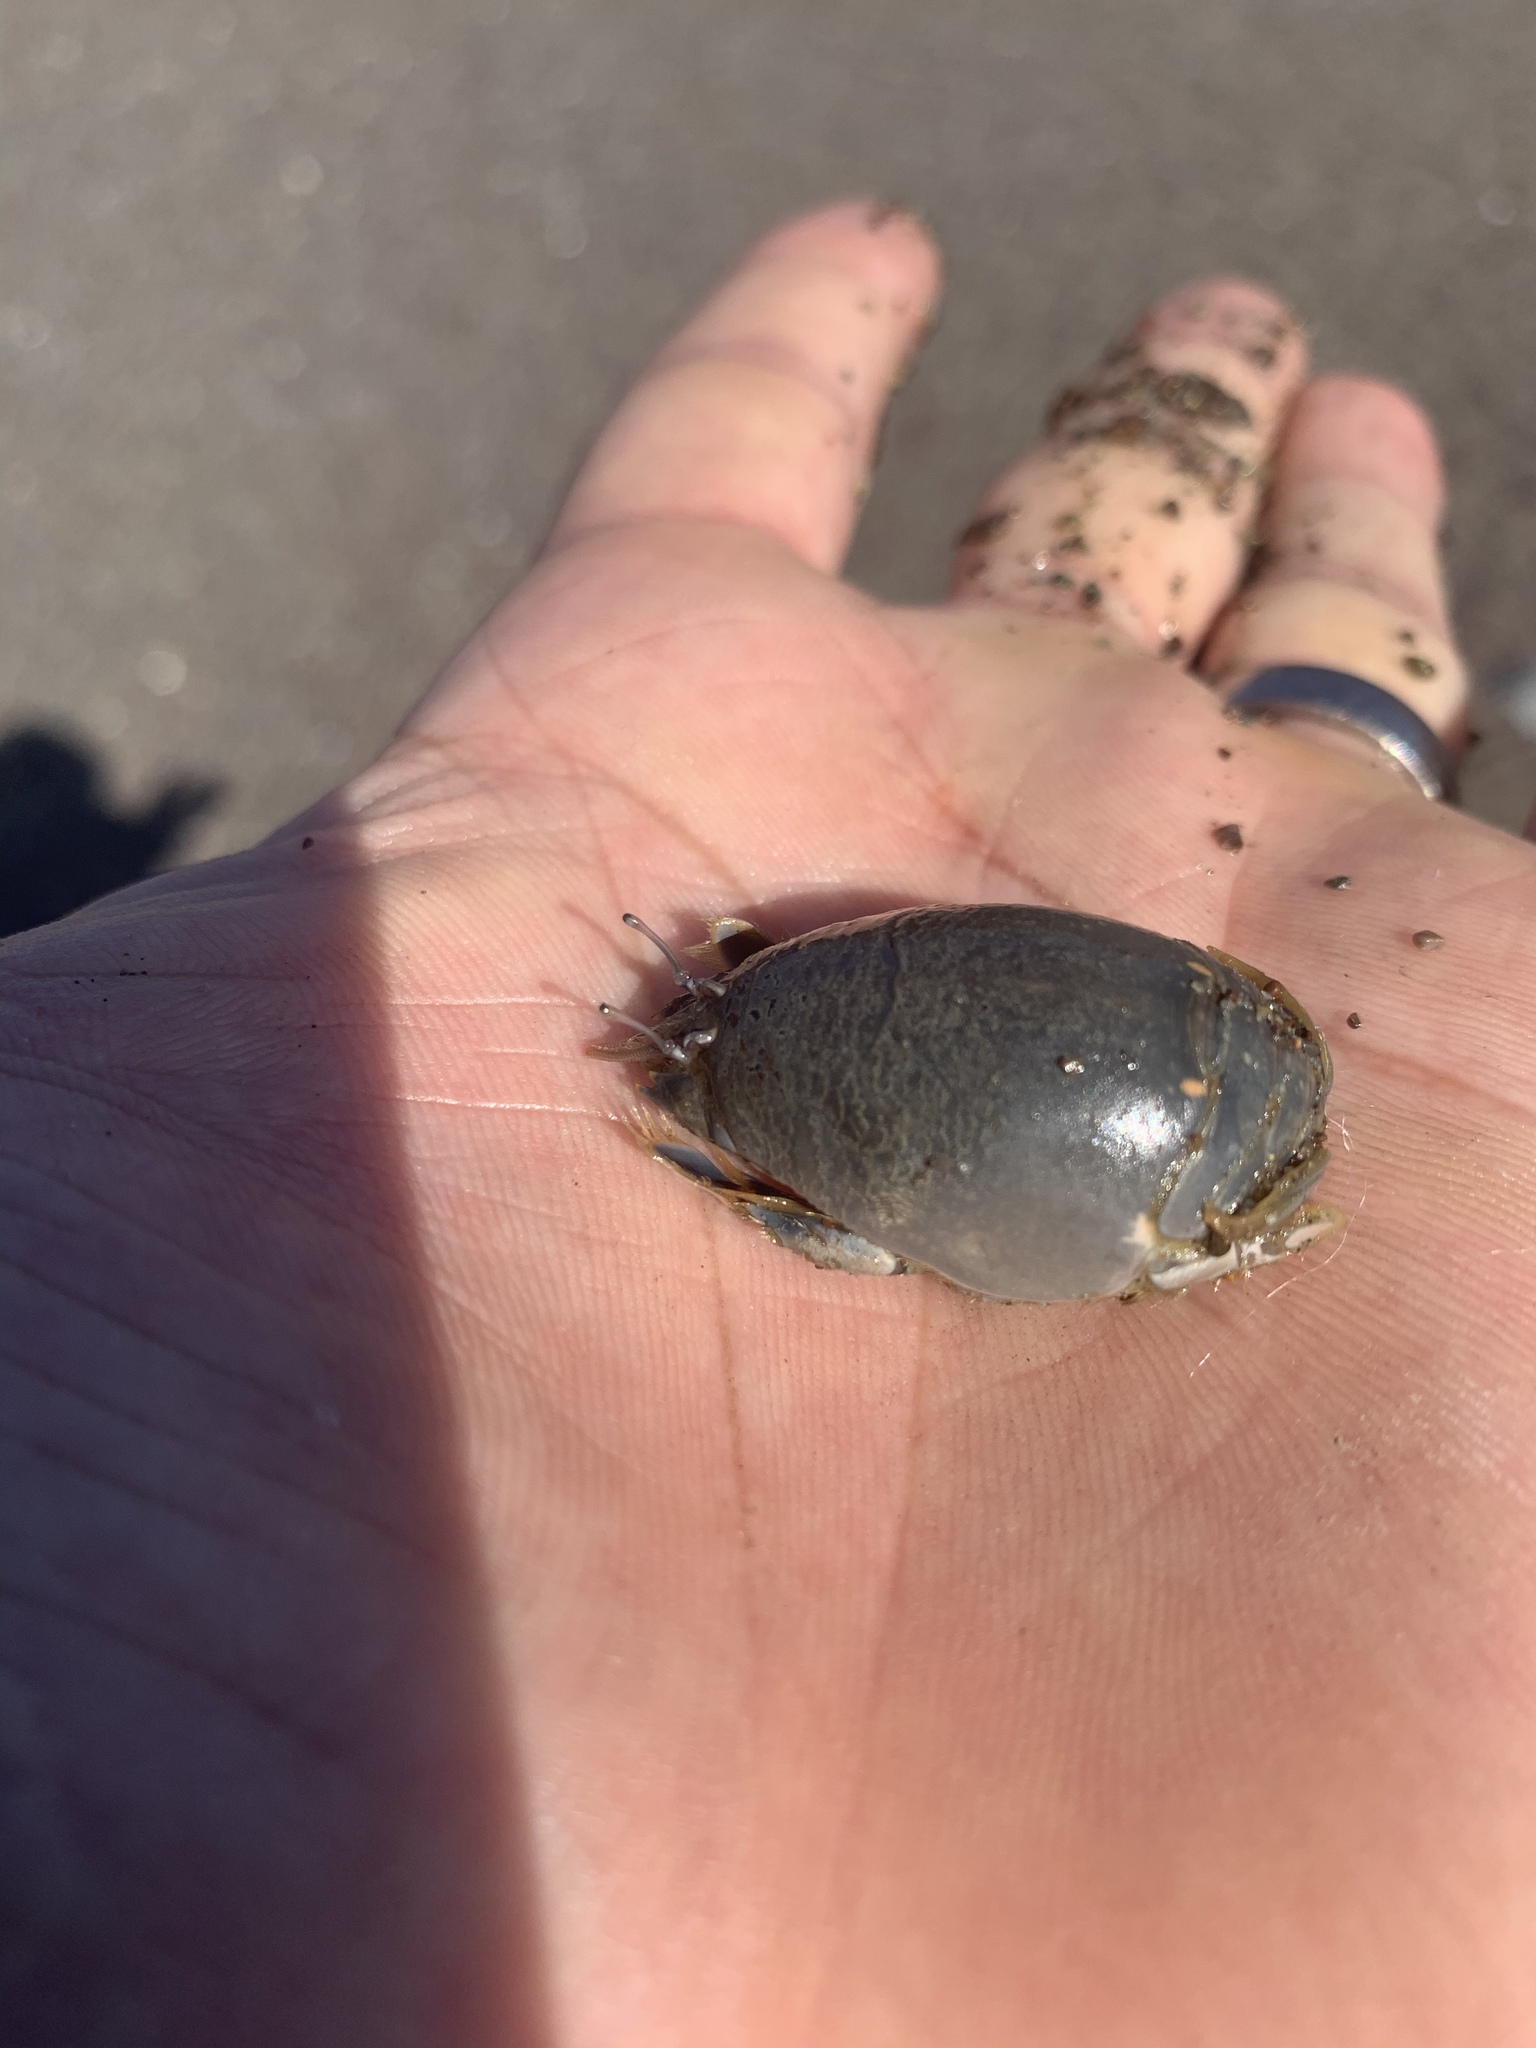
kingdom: Animalia
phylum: Arthropoda
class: Malacostraca
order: Decapoda
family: Hippidae
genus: Emerita
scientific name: Emerita analoga
